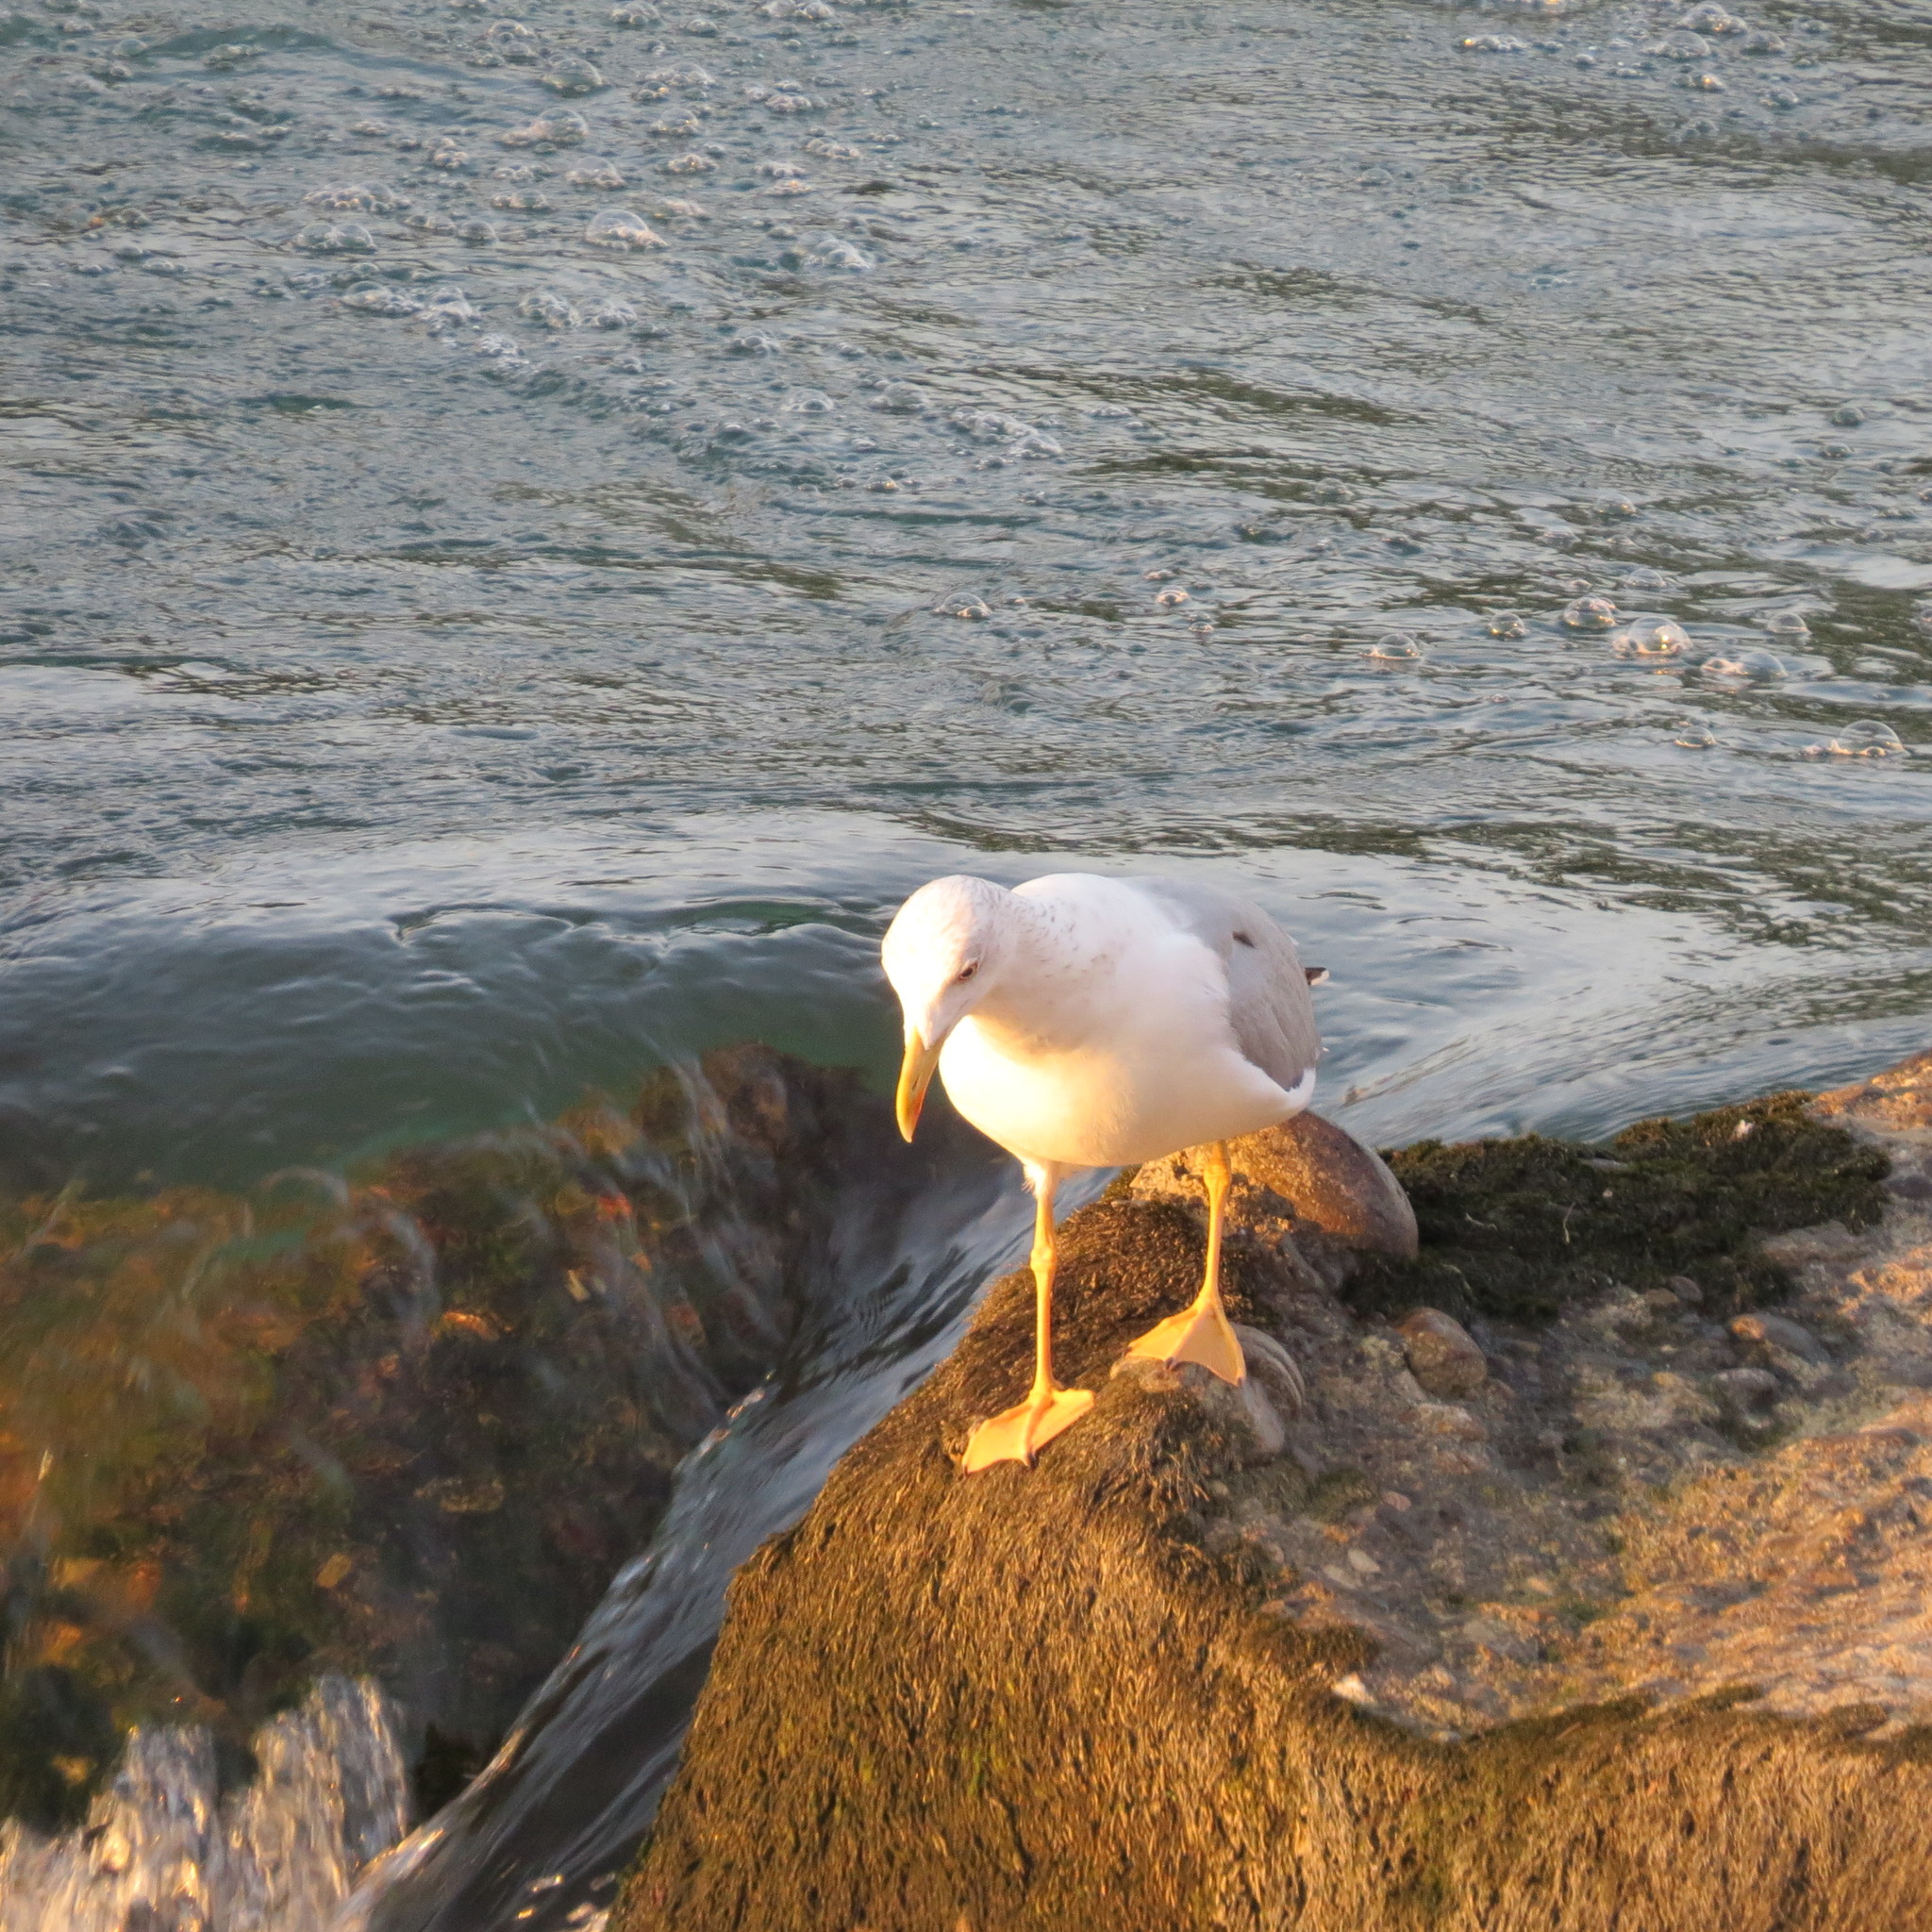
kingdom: Animalia
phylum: Chordata
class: Aves
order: Charadriiformes
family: Laridae
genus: Larus
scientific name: Larus michahellis
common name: Yellow-legged gull
